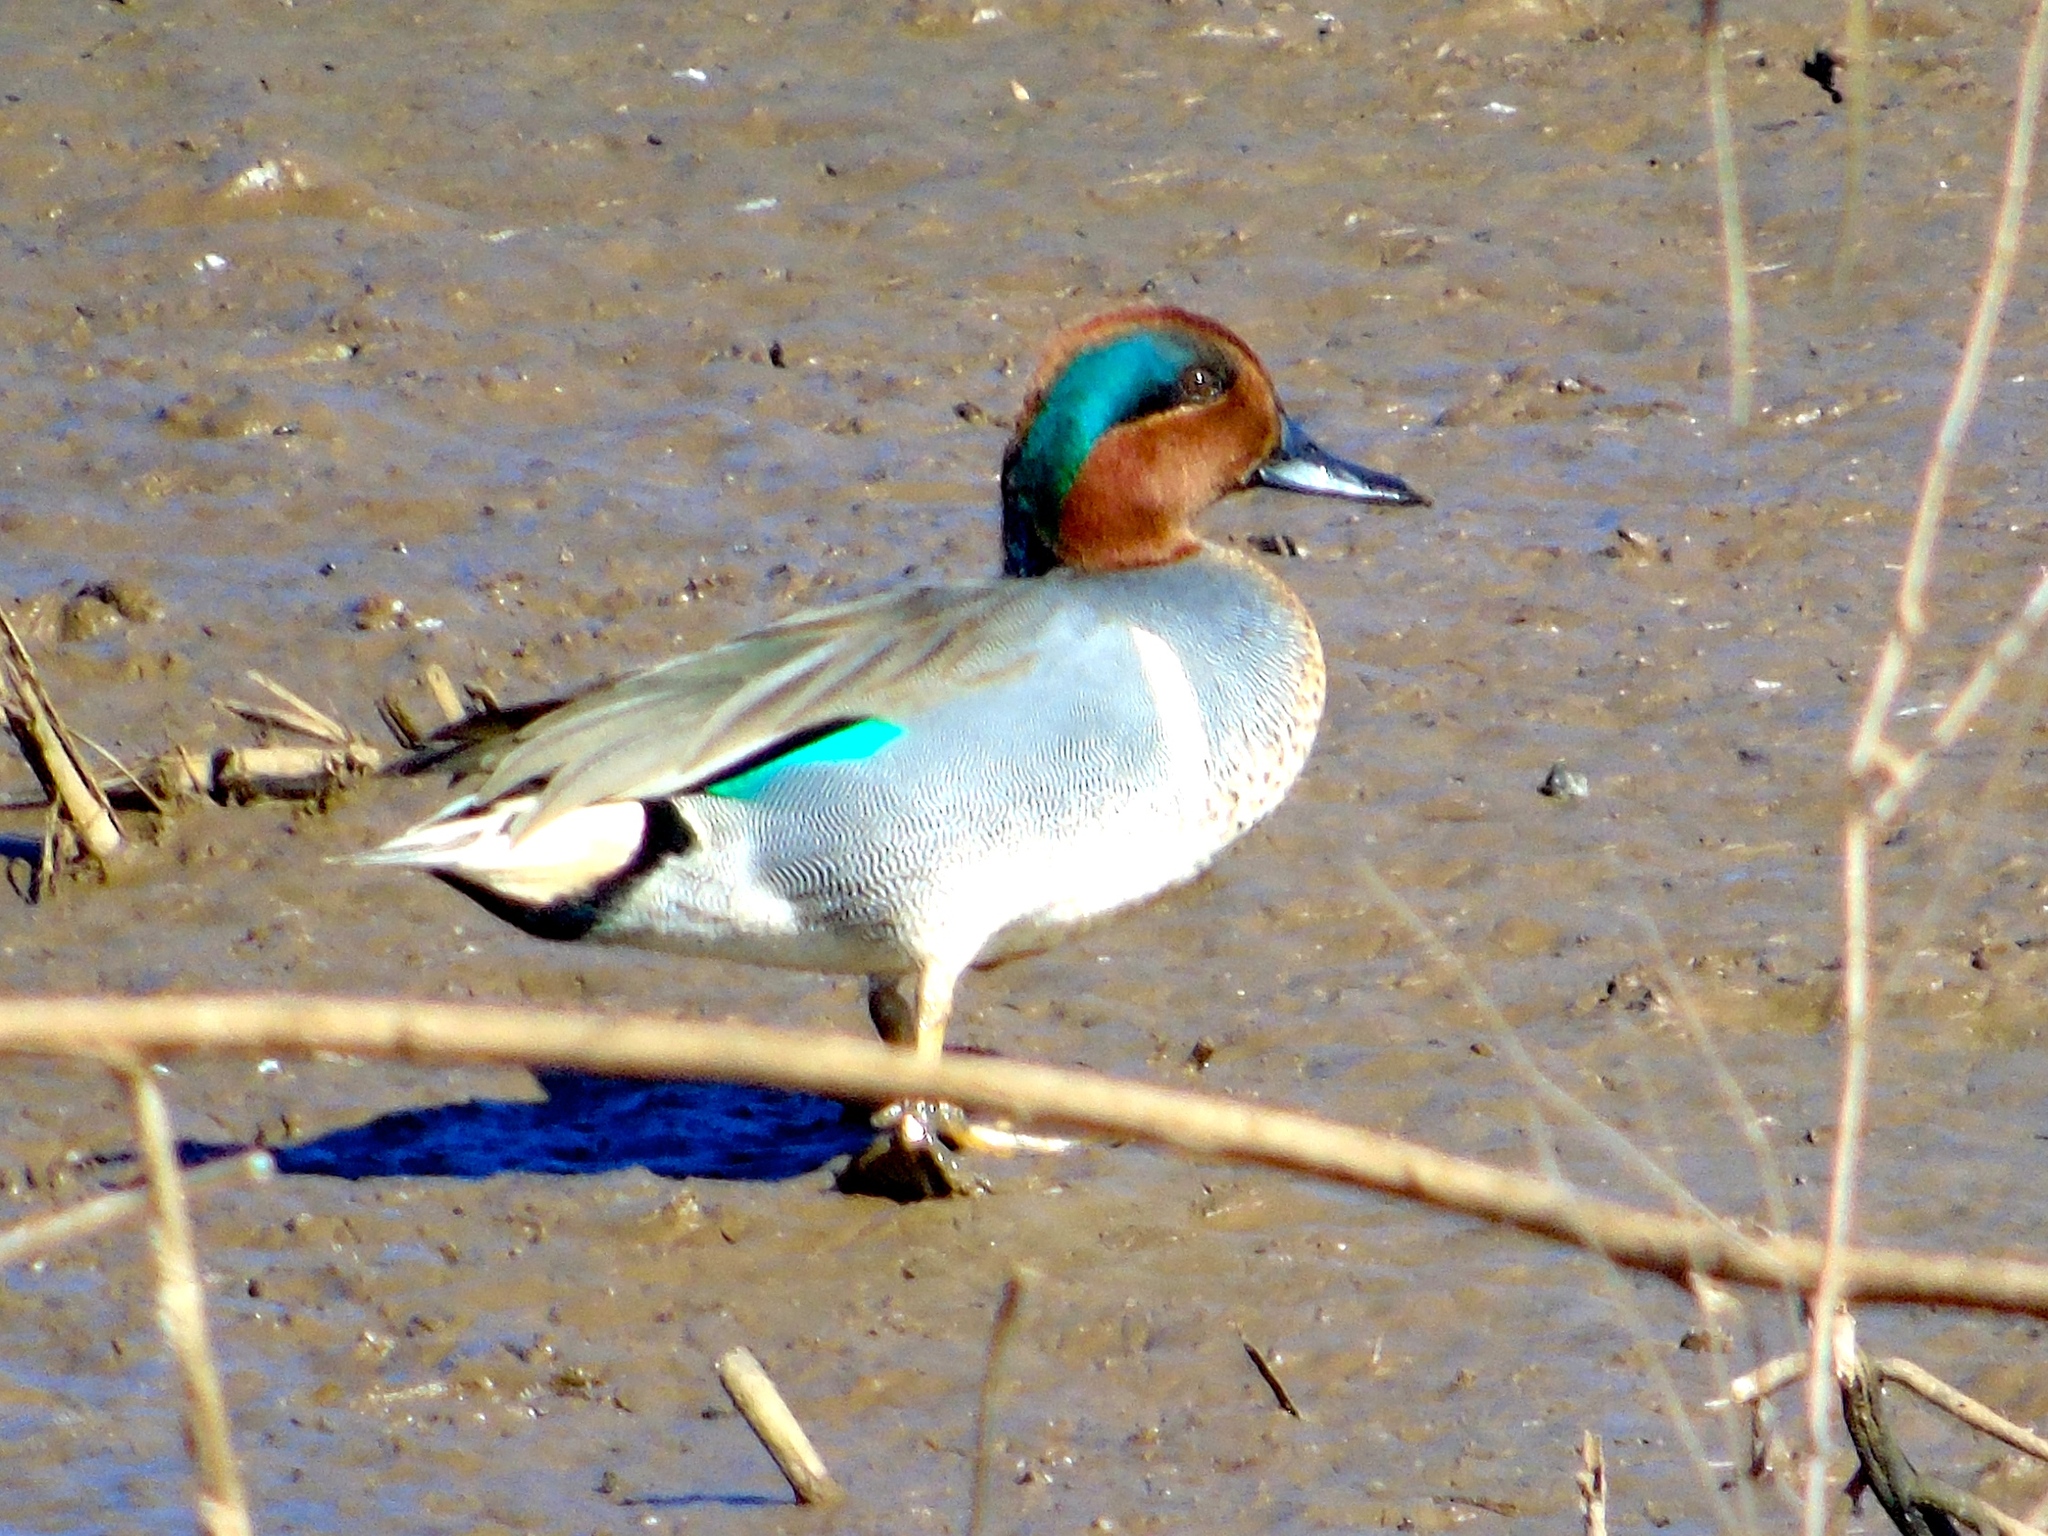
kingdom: Animalia
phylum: Chordata
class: Aves
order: Anseriformes
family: Anatidae
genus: Anas
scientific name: Anas crecca
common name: Eurasian teal
